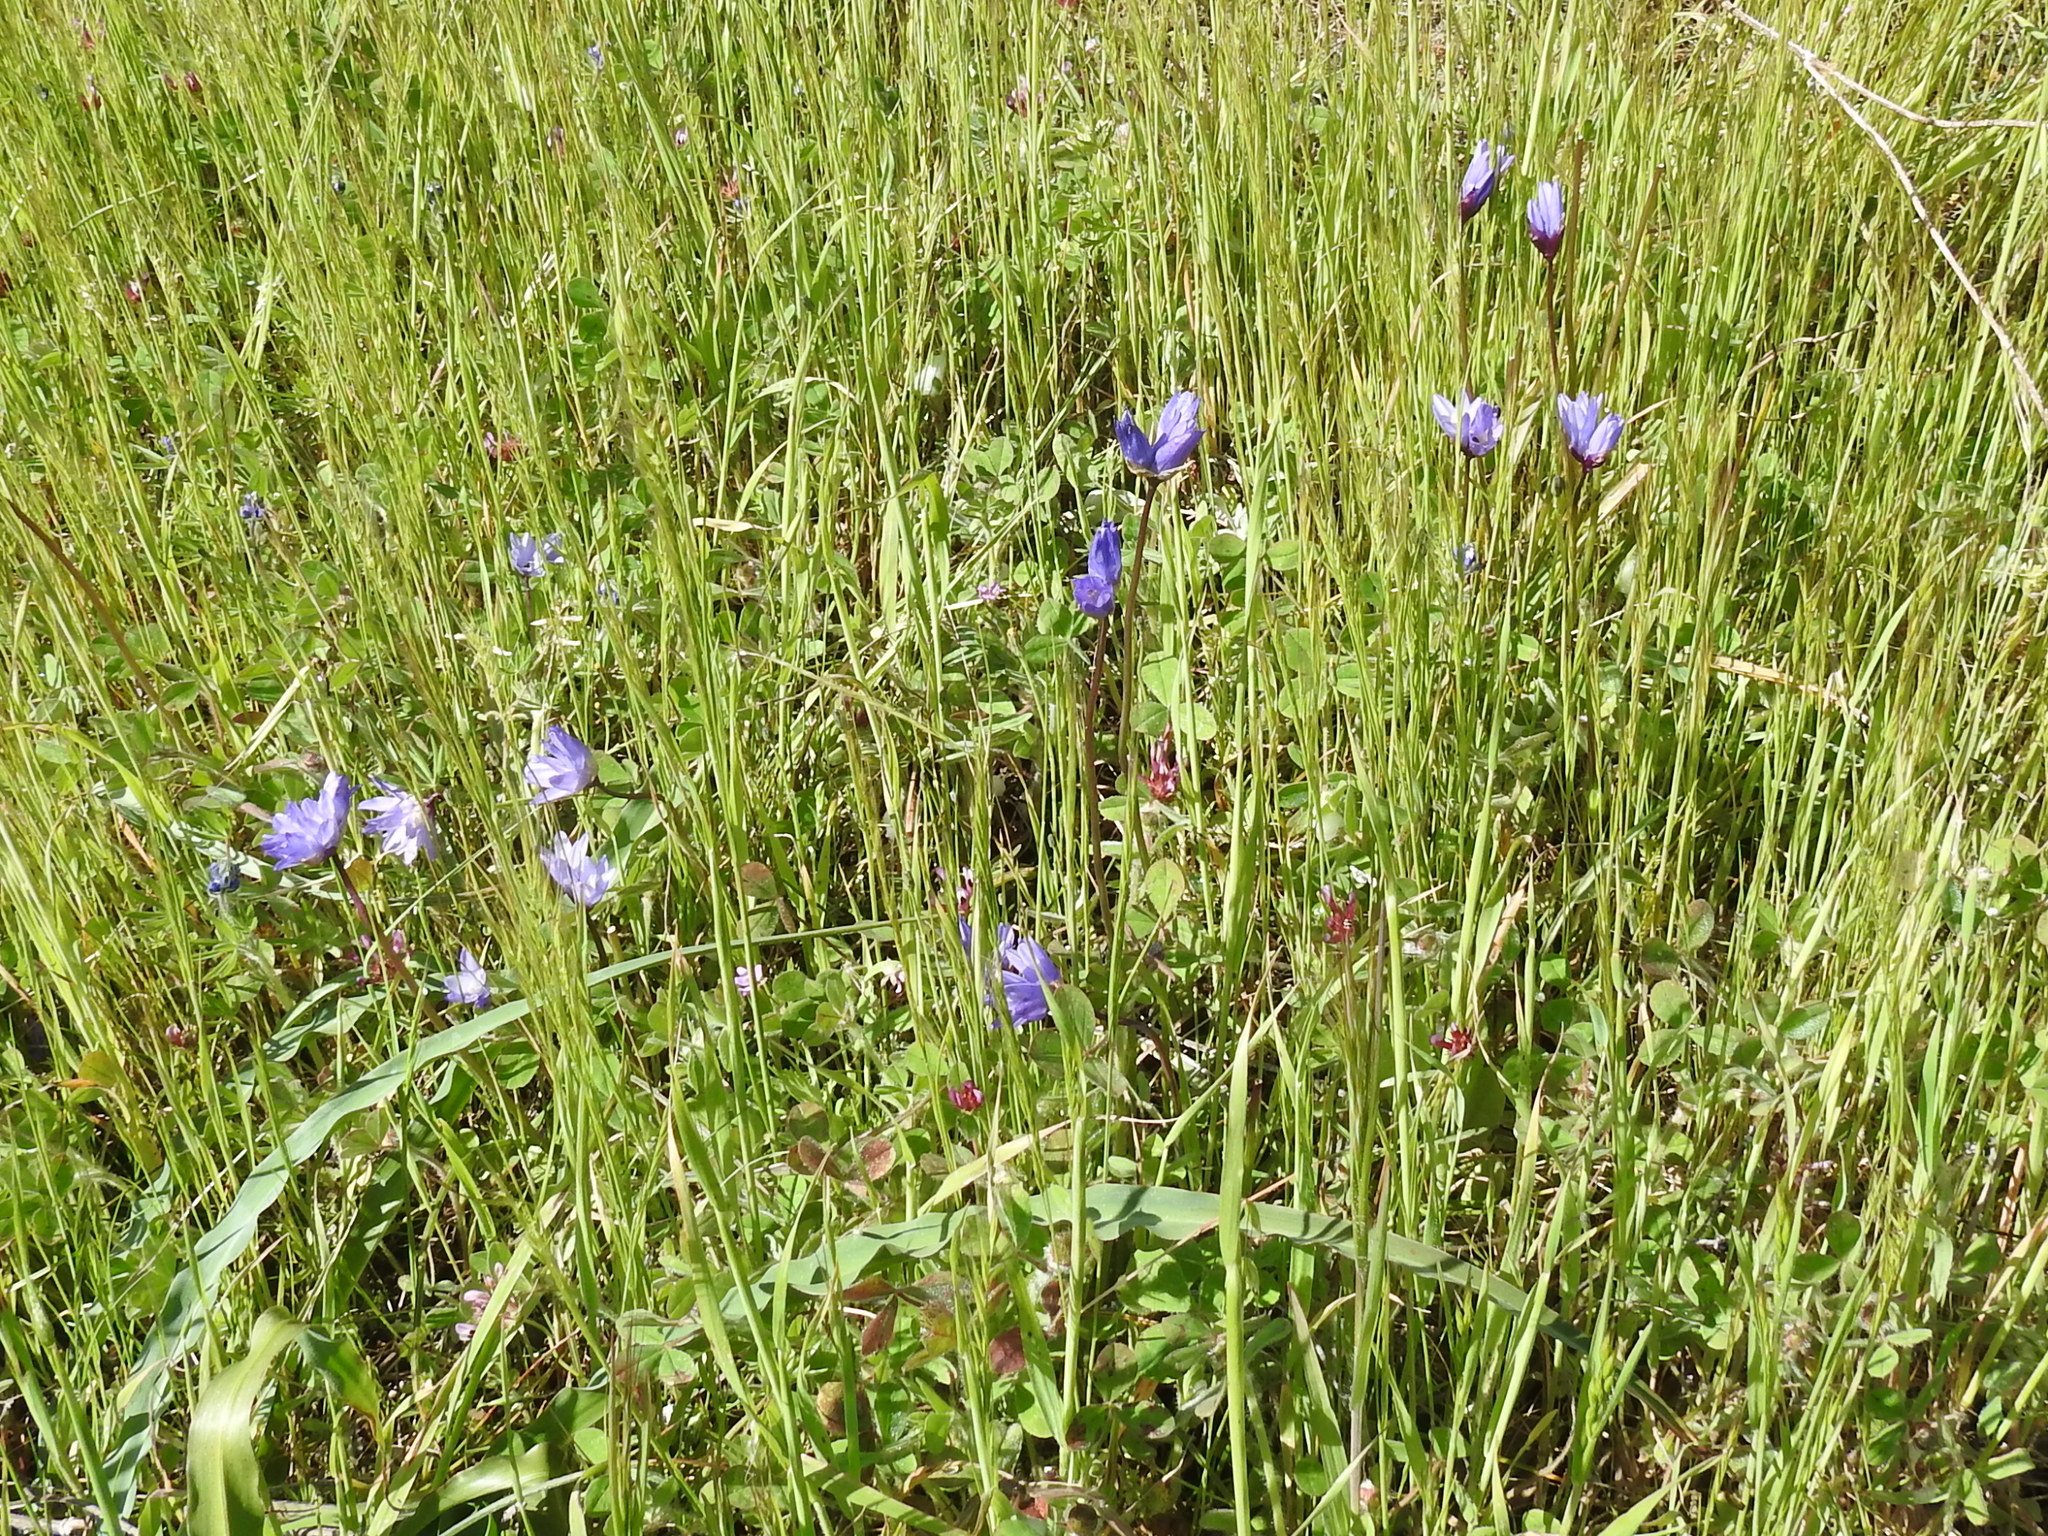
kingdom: Plantae
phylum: Tracheophyta
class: Liliopsida
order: Asparagales
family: Asparagaceae
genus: Dipterostemon
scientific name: Dipterostemon capitatus
